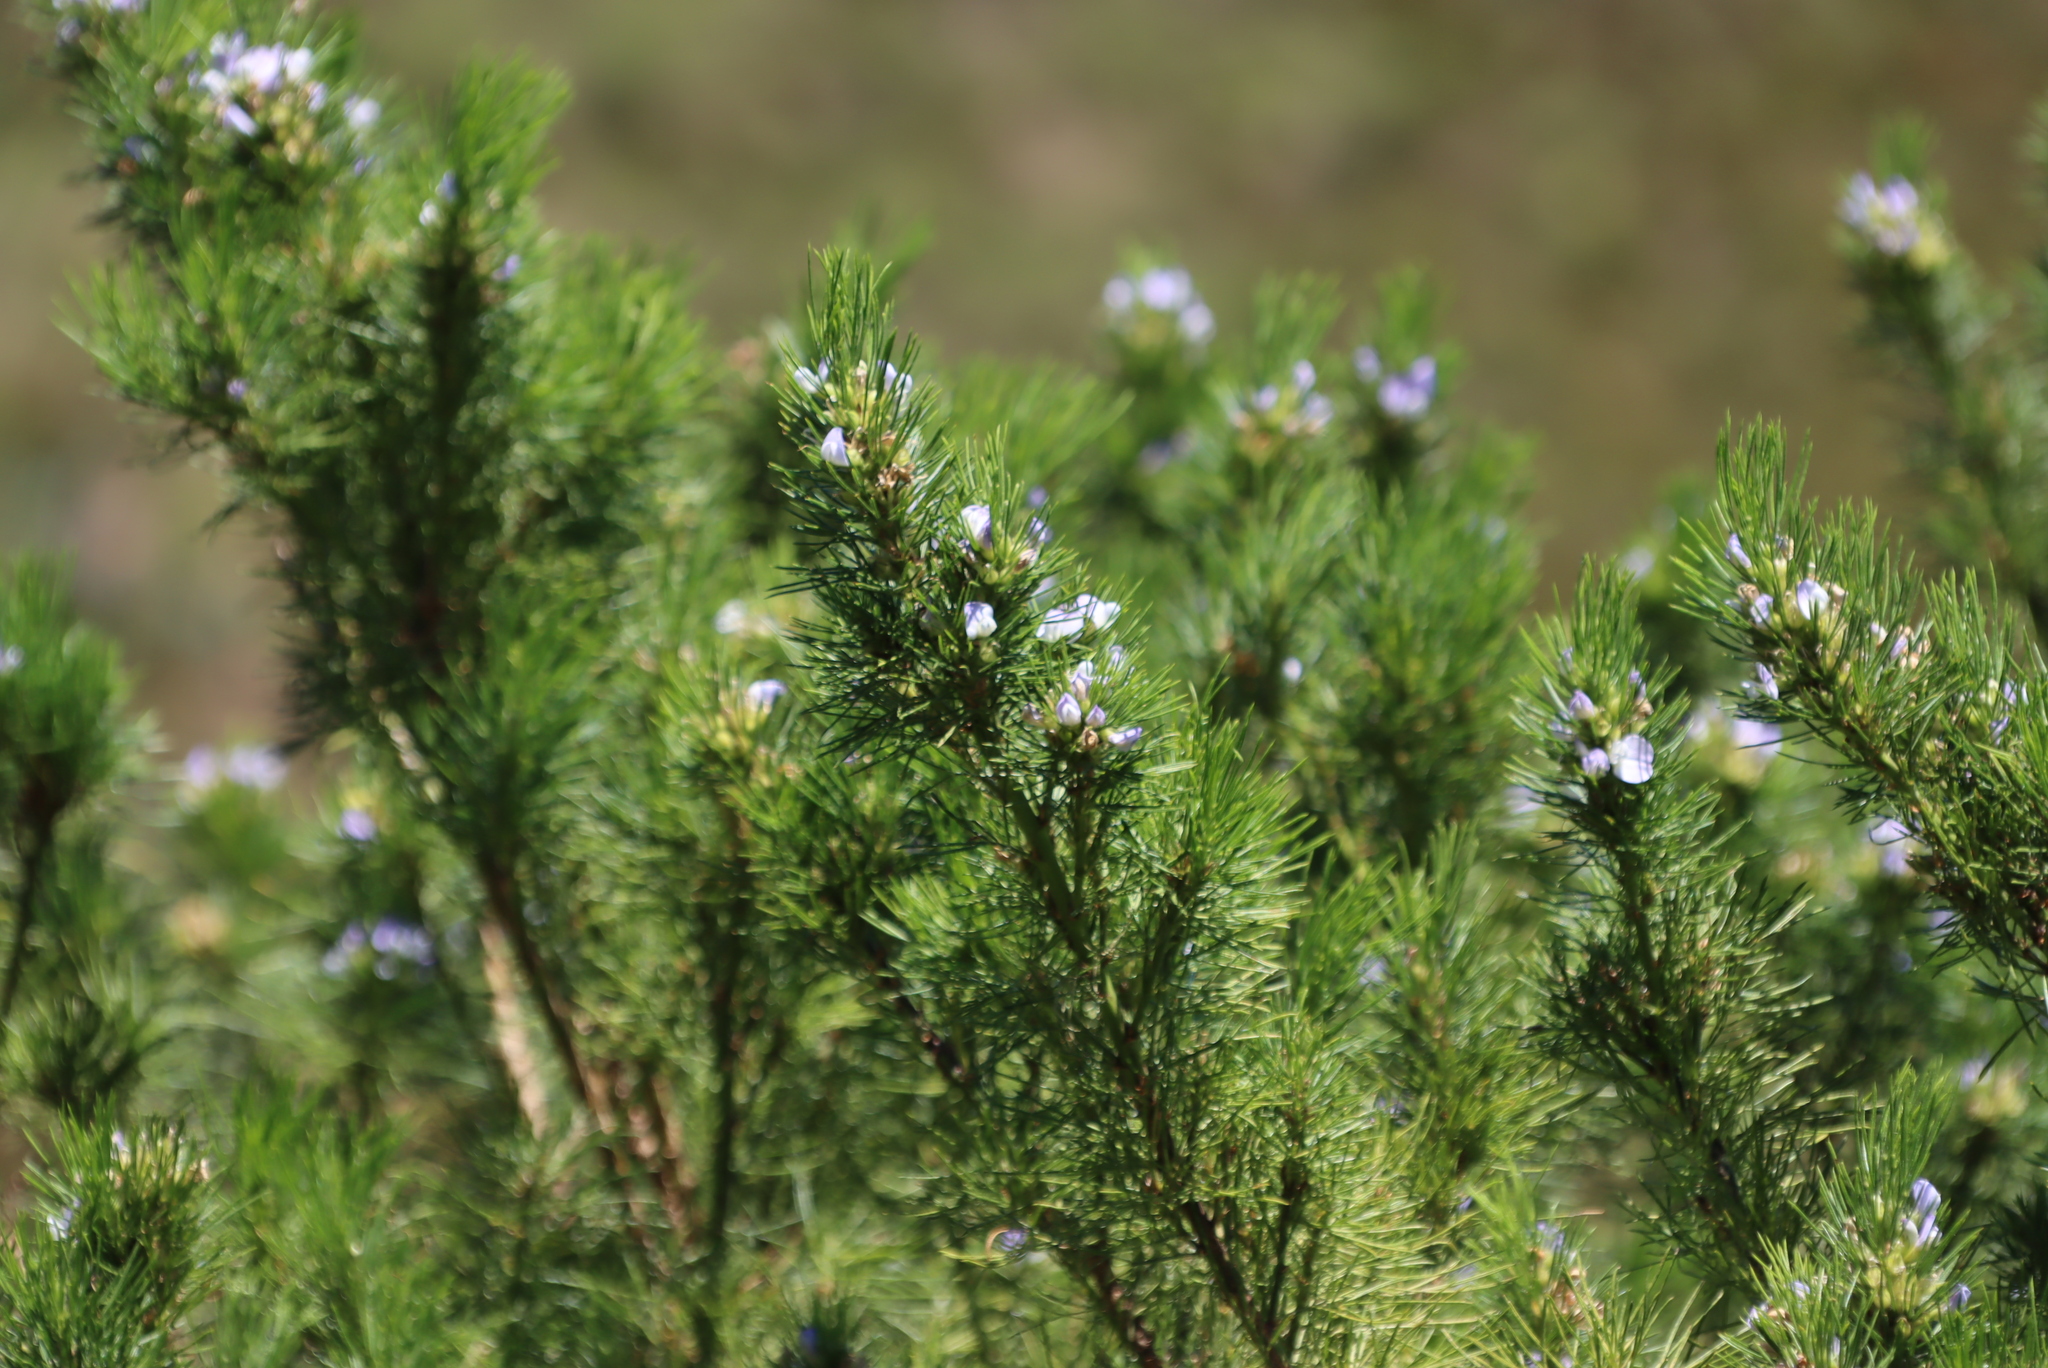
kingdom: Plantae
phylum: Tracheophyta
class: Magnoliopsida
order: Fabales
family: Fabaceae
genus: Psoralea
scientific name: Psoralea pinnata
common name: African scurfpea
